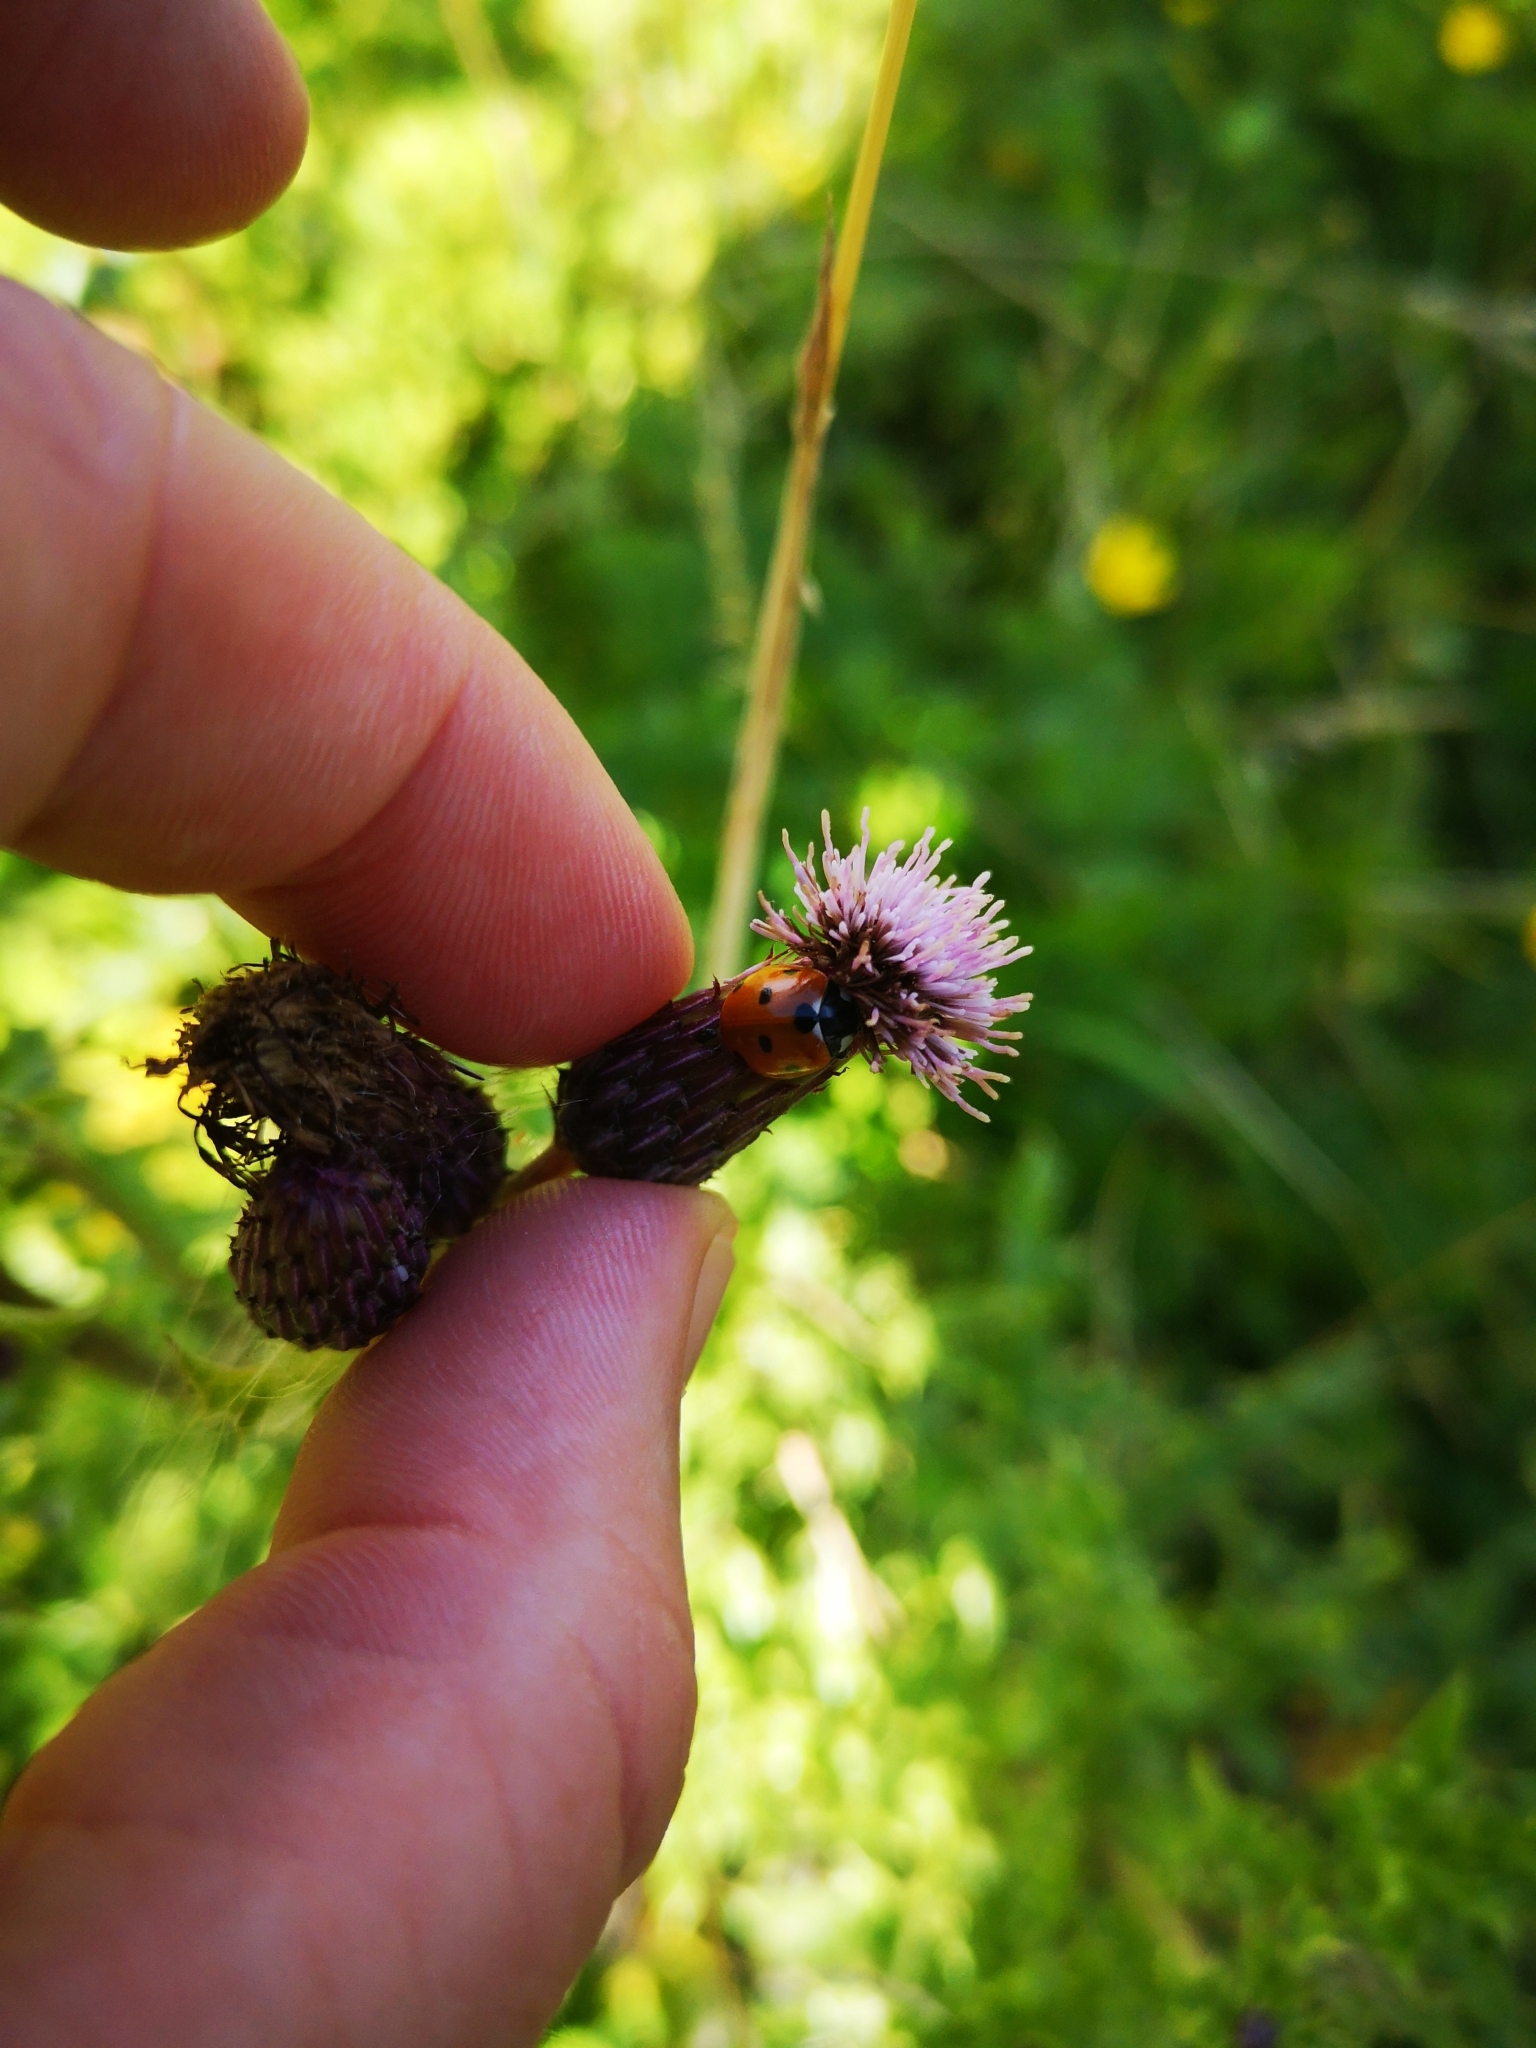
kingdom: Animalia
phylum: Arthropoda
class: Insecta
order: Coleoptera
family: Coccinellidae
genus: Coccinella
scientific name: Coccinella septempunctata
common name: Sevenspotted lady beetle
